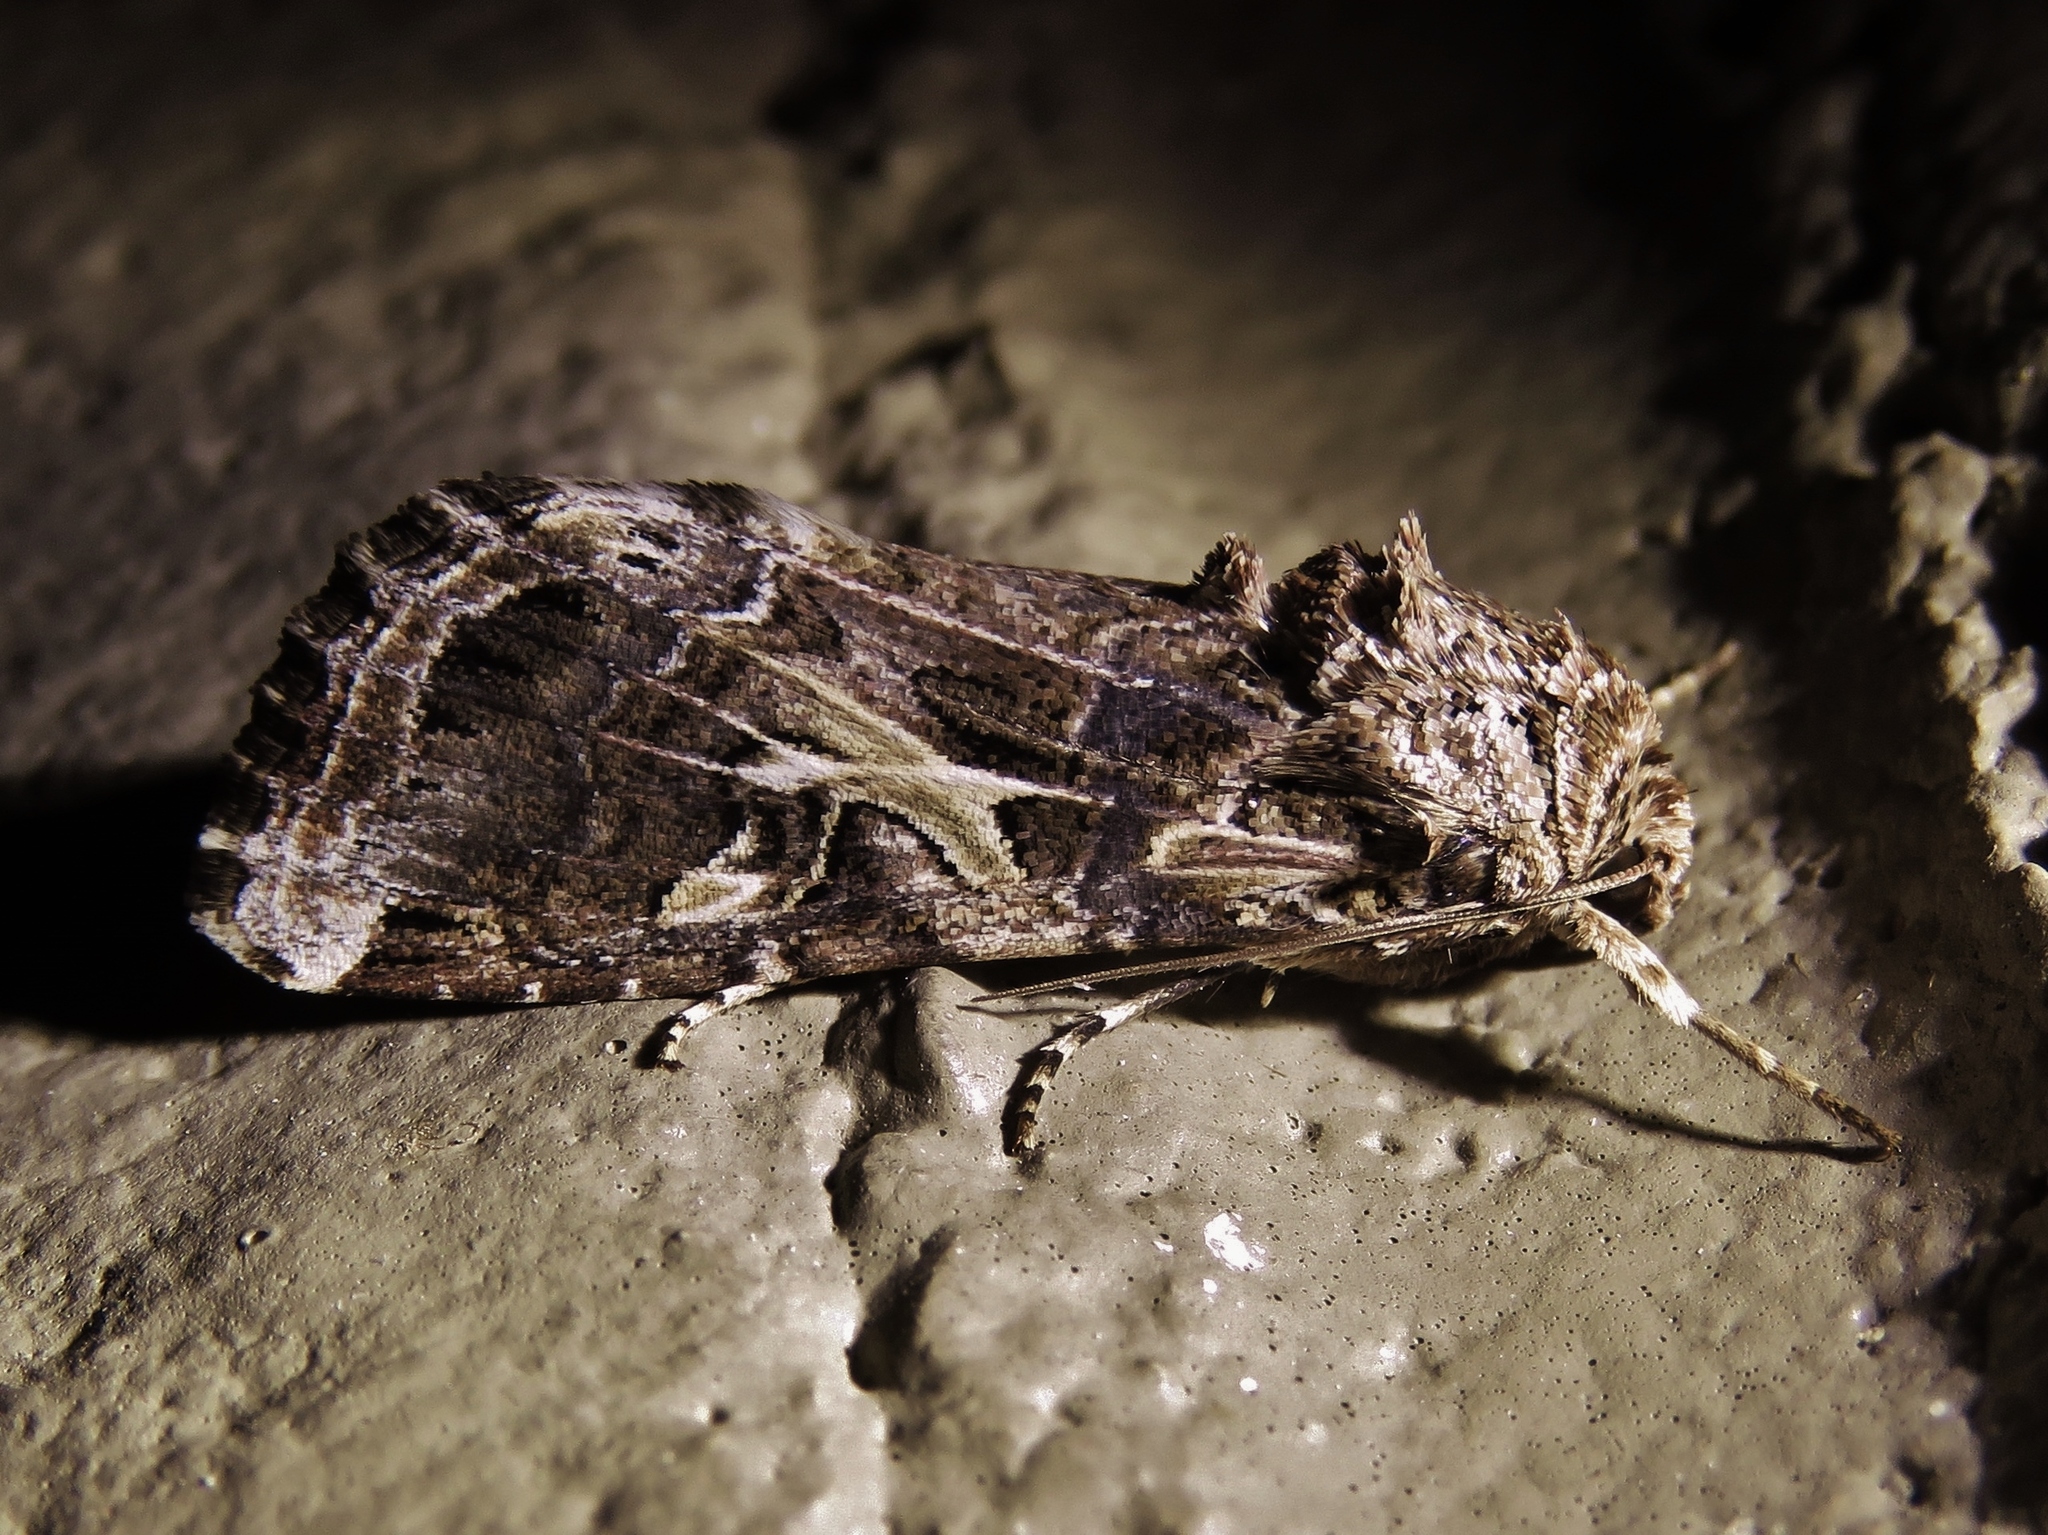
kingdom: Animalia
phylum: Arthropoda
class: Insecta
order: Lepidoptera
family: Noctuidae
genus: Spodoptera
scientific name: Spodoptera ornithogalli
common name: Yellow-striped armyworm
